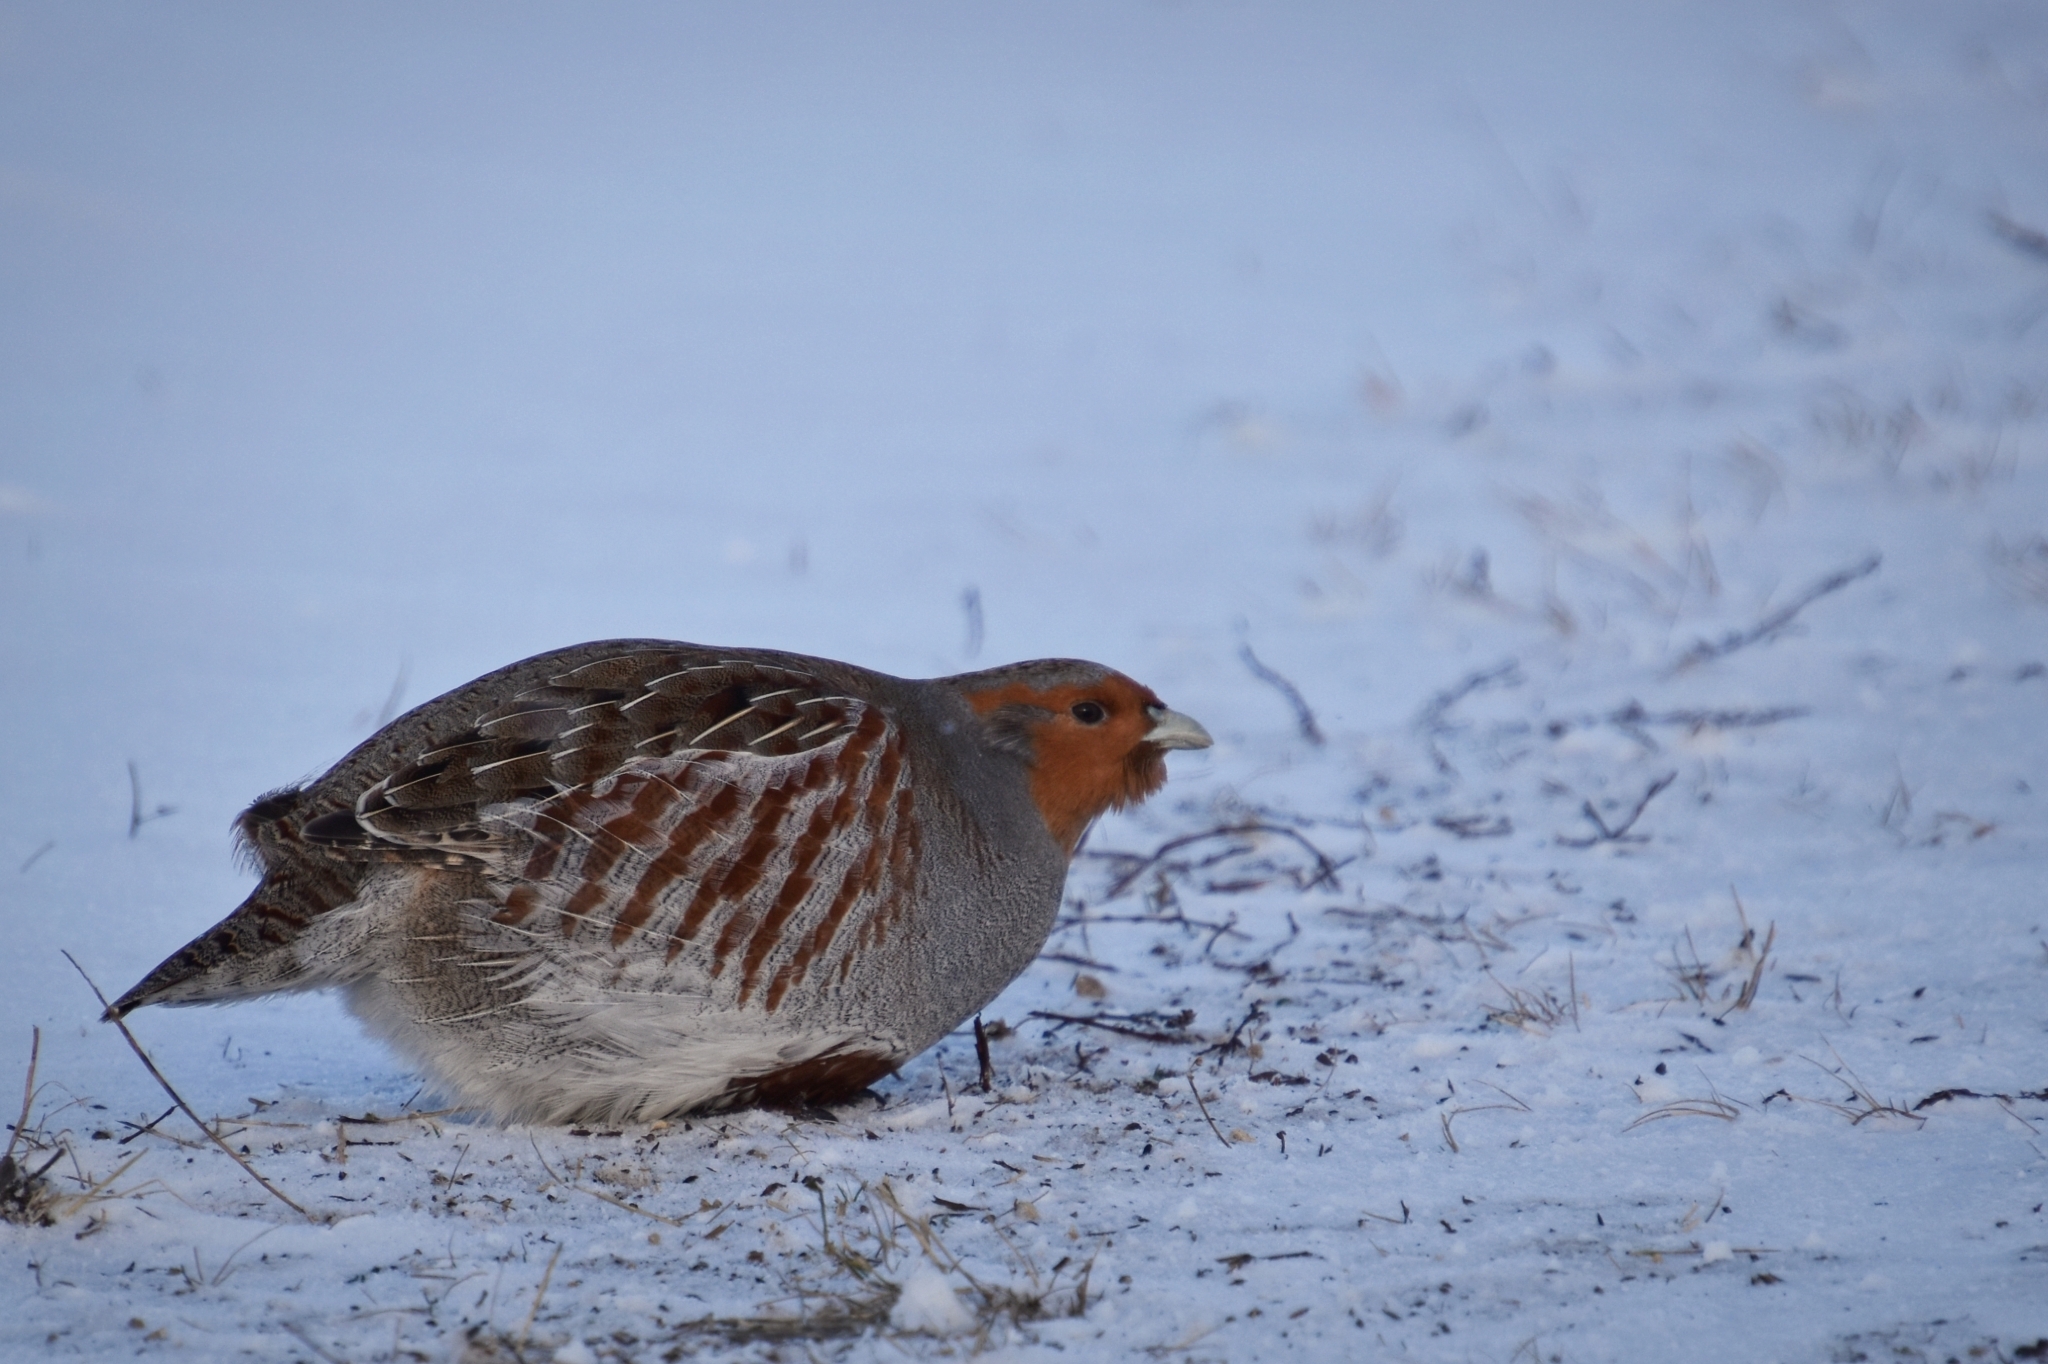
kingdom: Animalia
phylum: Chordata
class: Aves
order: Galliformes
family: Phasianidae
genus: Perdix
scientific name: Perdix perdix
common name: Grey partridge
